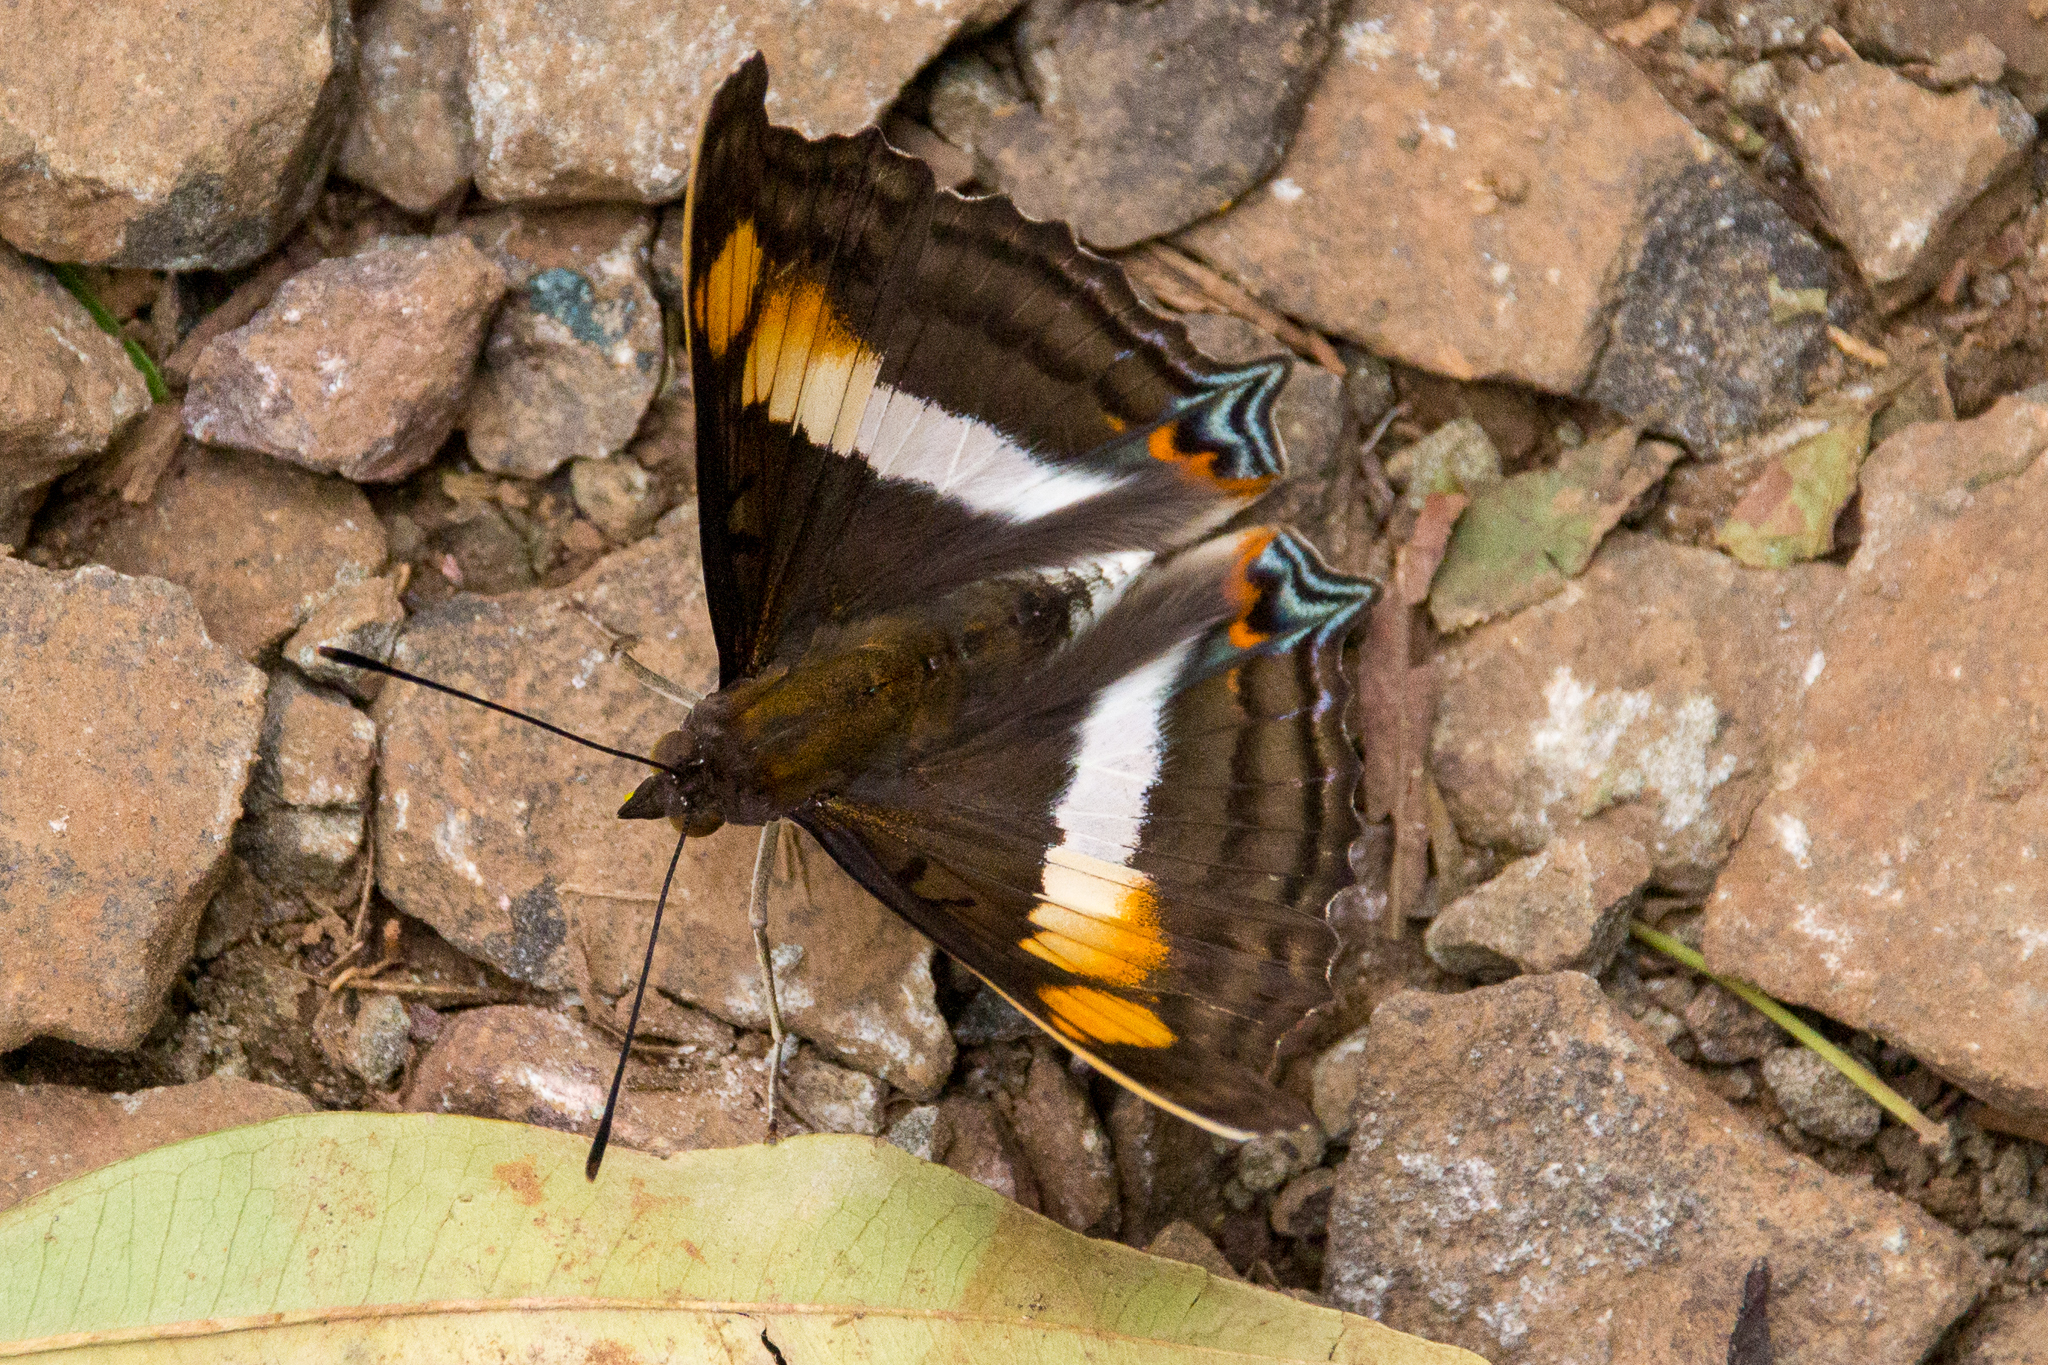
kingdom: Animalia
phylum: Arthropoda
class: Insecta
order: Lepidoptera
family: Nymphalidae
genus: Doxocopa
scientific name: Doxocopa linda
